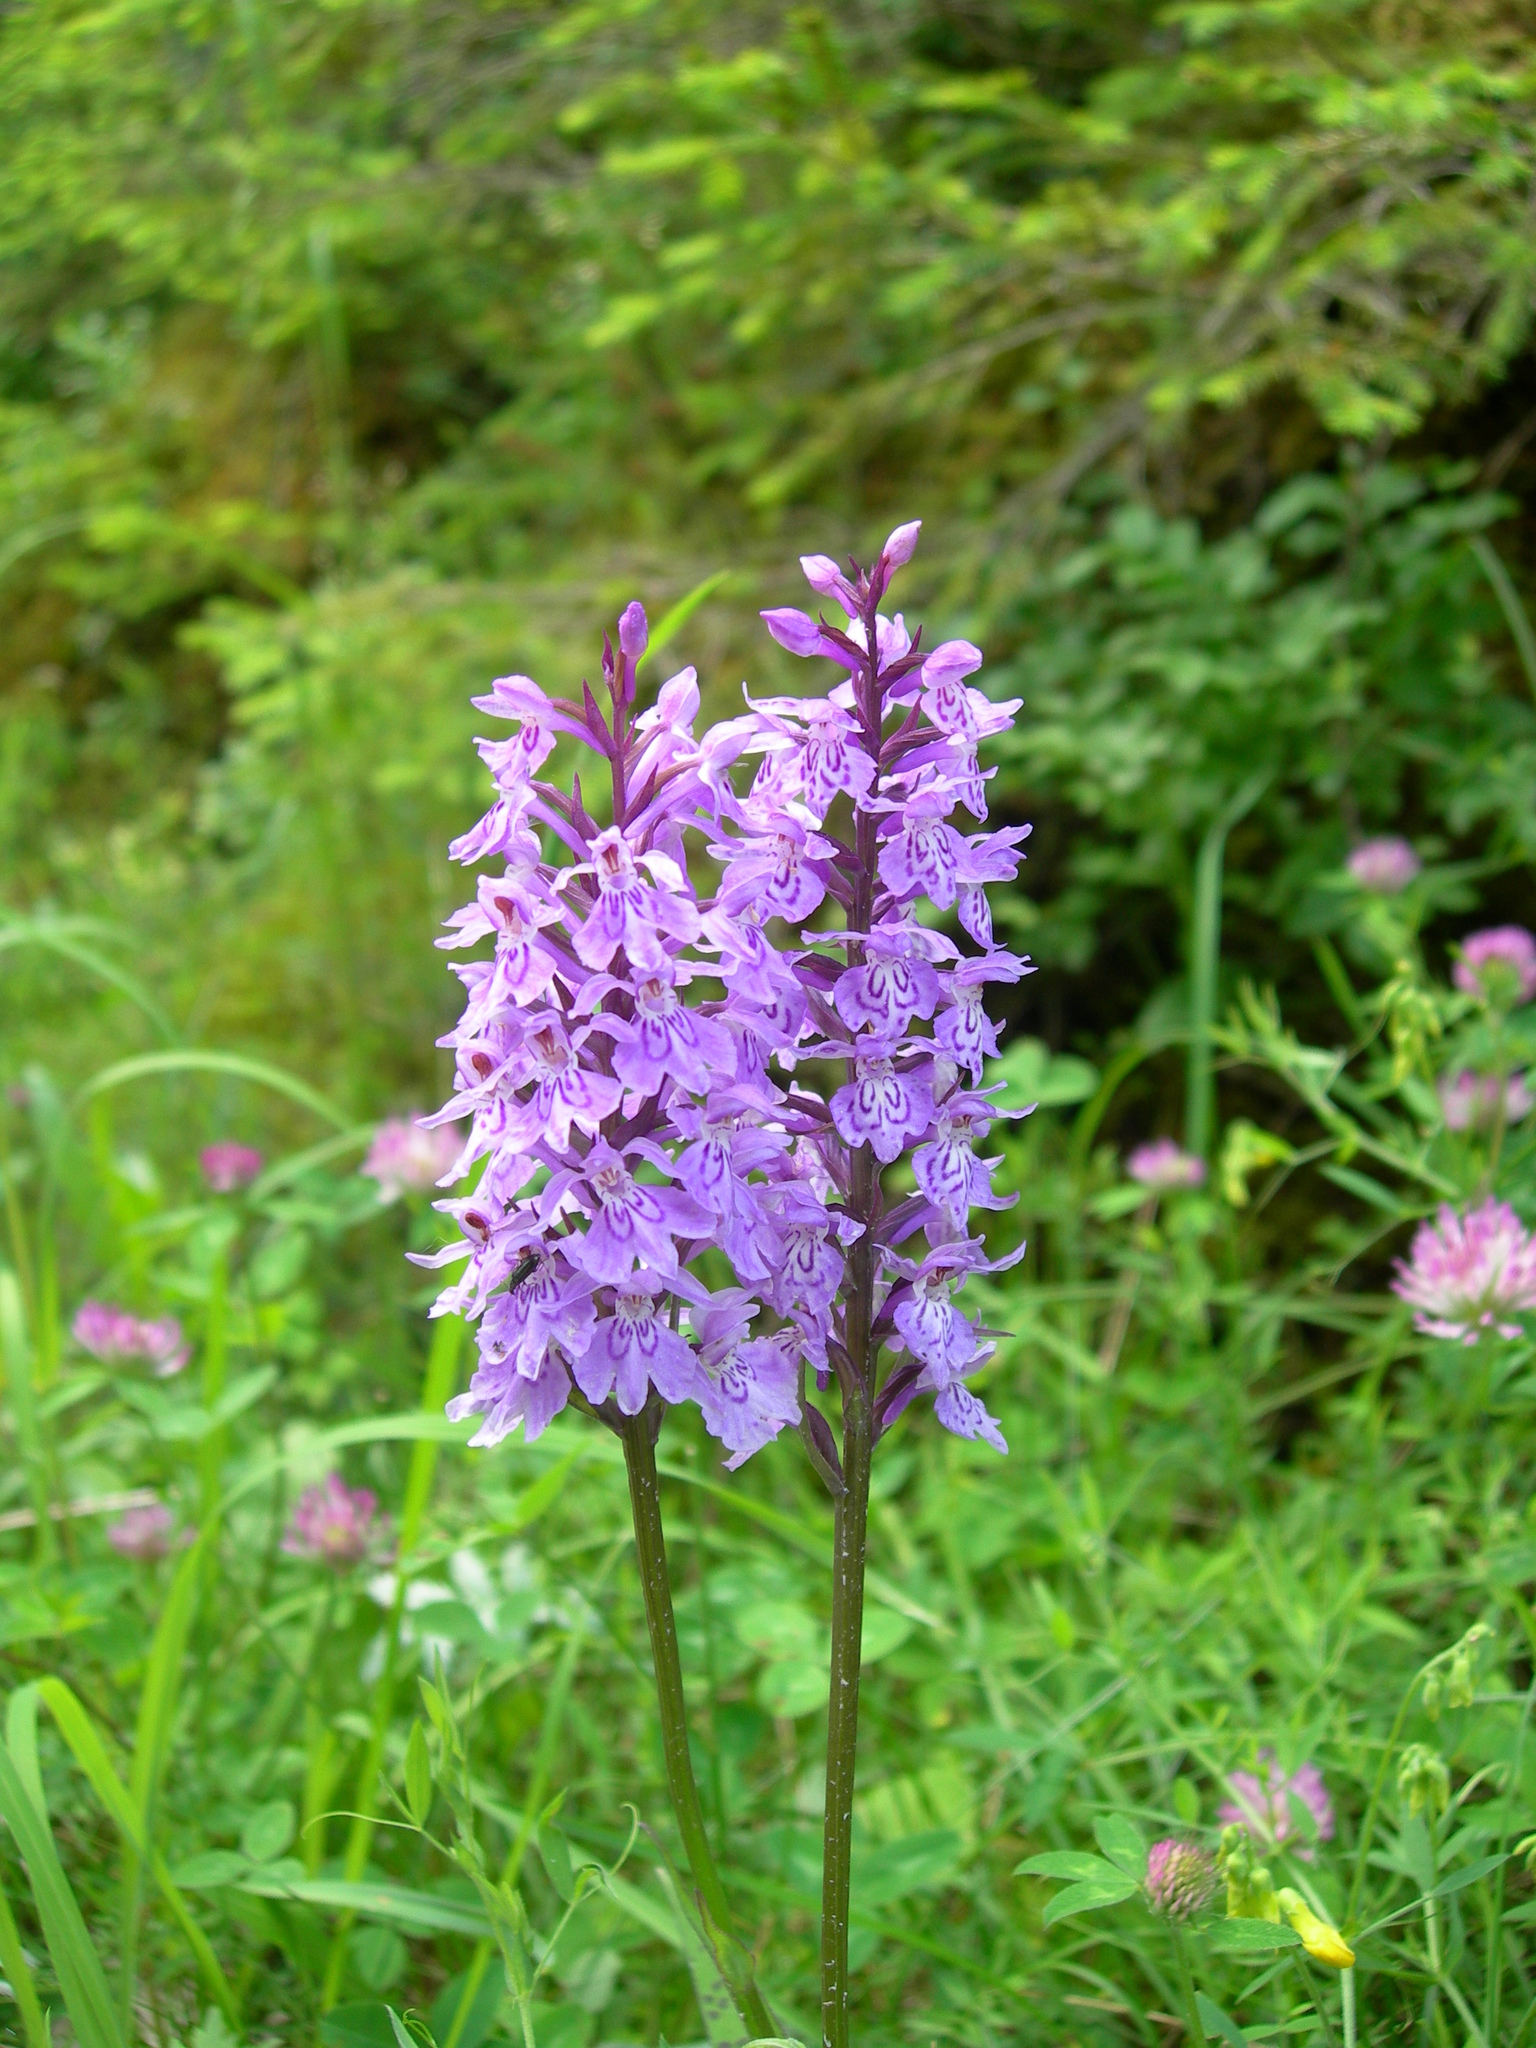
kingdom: Plantae
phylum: Tracheophyta
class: Liliopsida
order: Asparagales
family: Orchidaceae
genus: Dactylorhiza
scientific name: Dactylorhiza maculata
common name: Heath spotted-orchid
